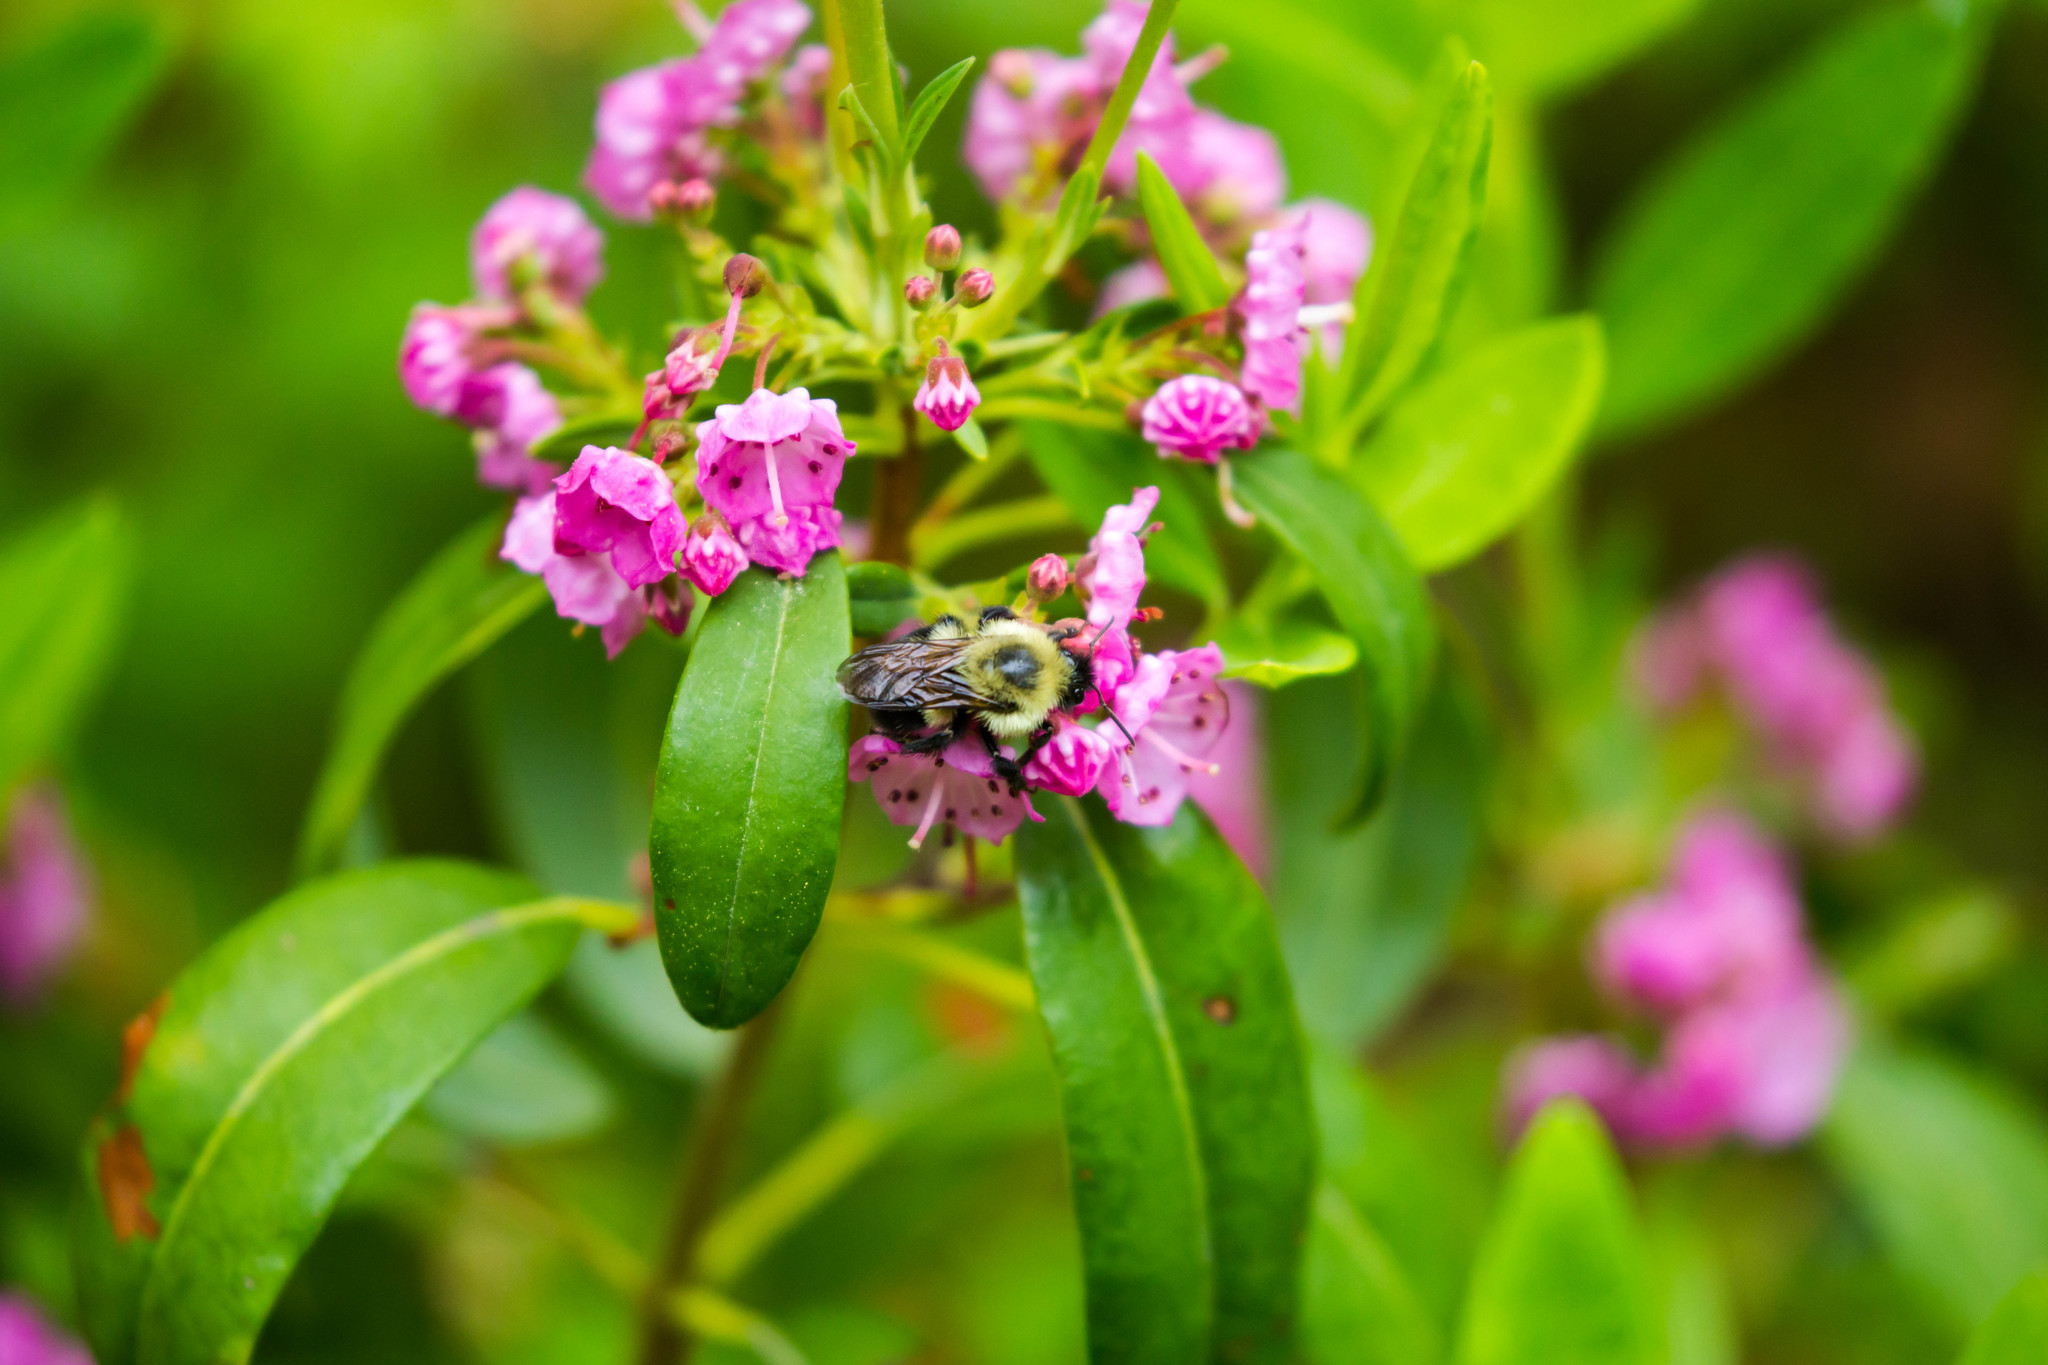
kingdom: Animalia
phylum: Arthropoda
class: Insecta
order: Hymenoptera
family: Apidae
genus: Bombus
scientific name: Bombus bimaculatus
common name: Two-spotted bumble bee
